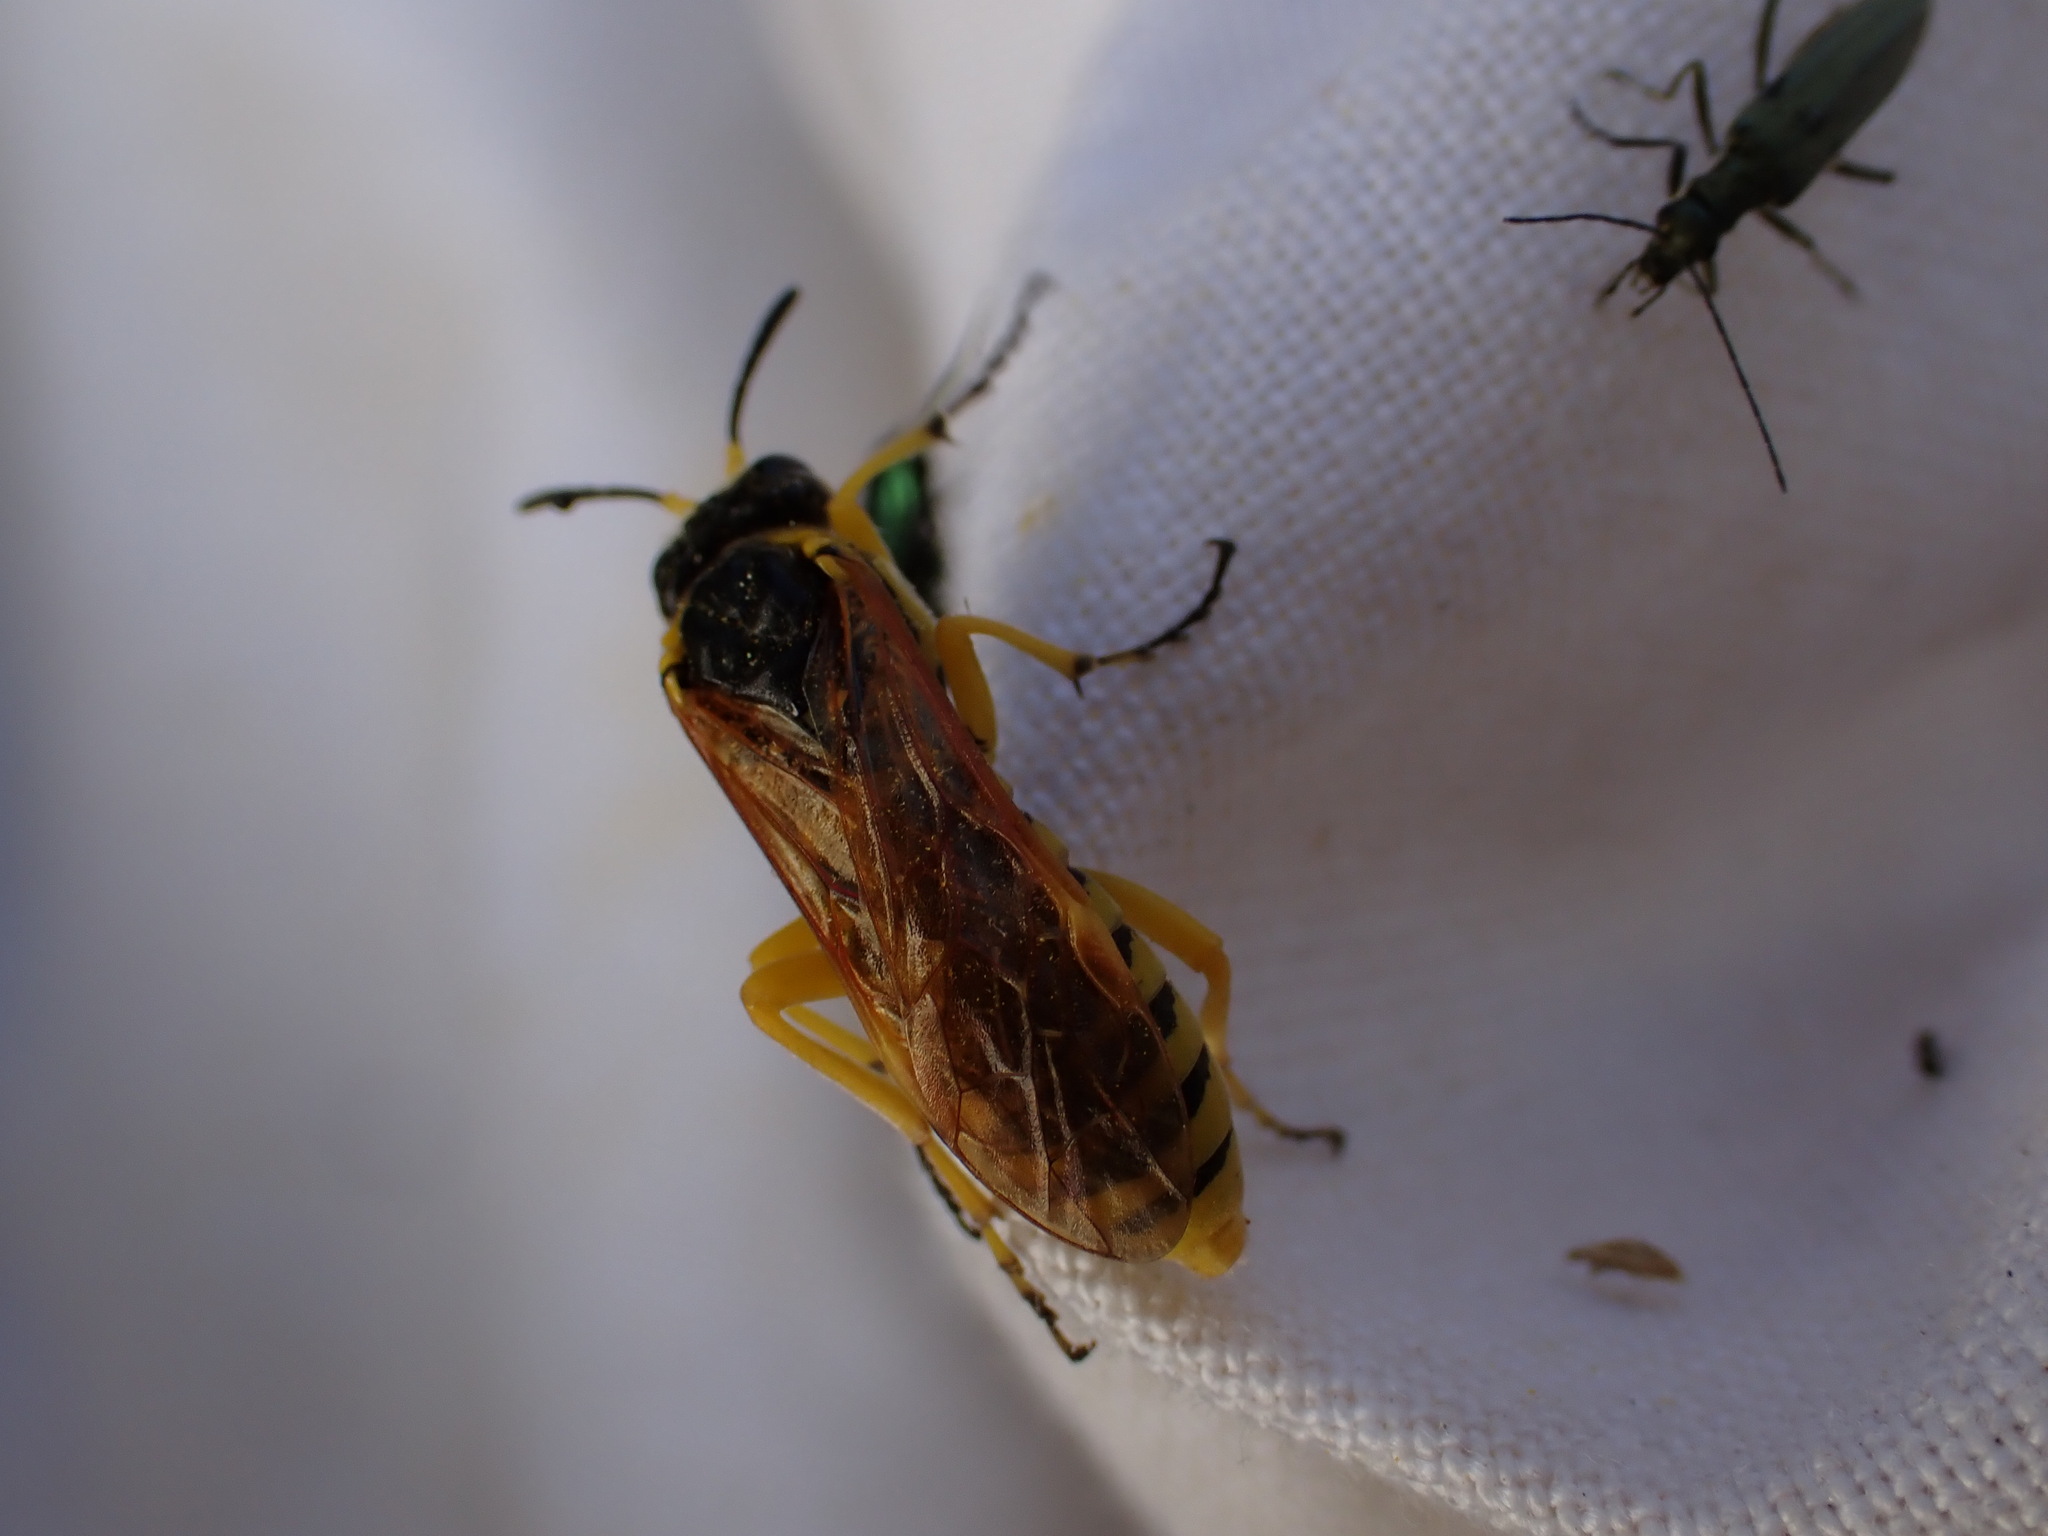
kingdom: Animalia
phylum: Arthropoda
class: Insecta
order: Hymenoptera
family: Tenthredinidae
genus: Tenthredo
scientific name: Tenthredo baetica
